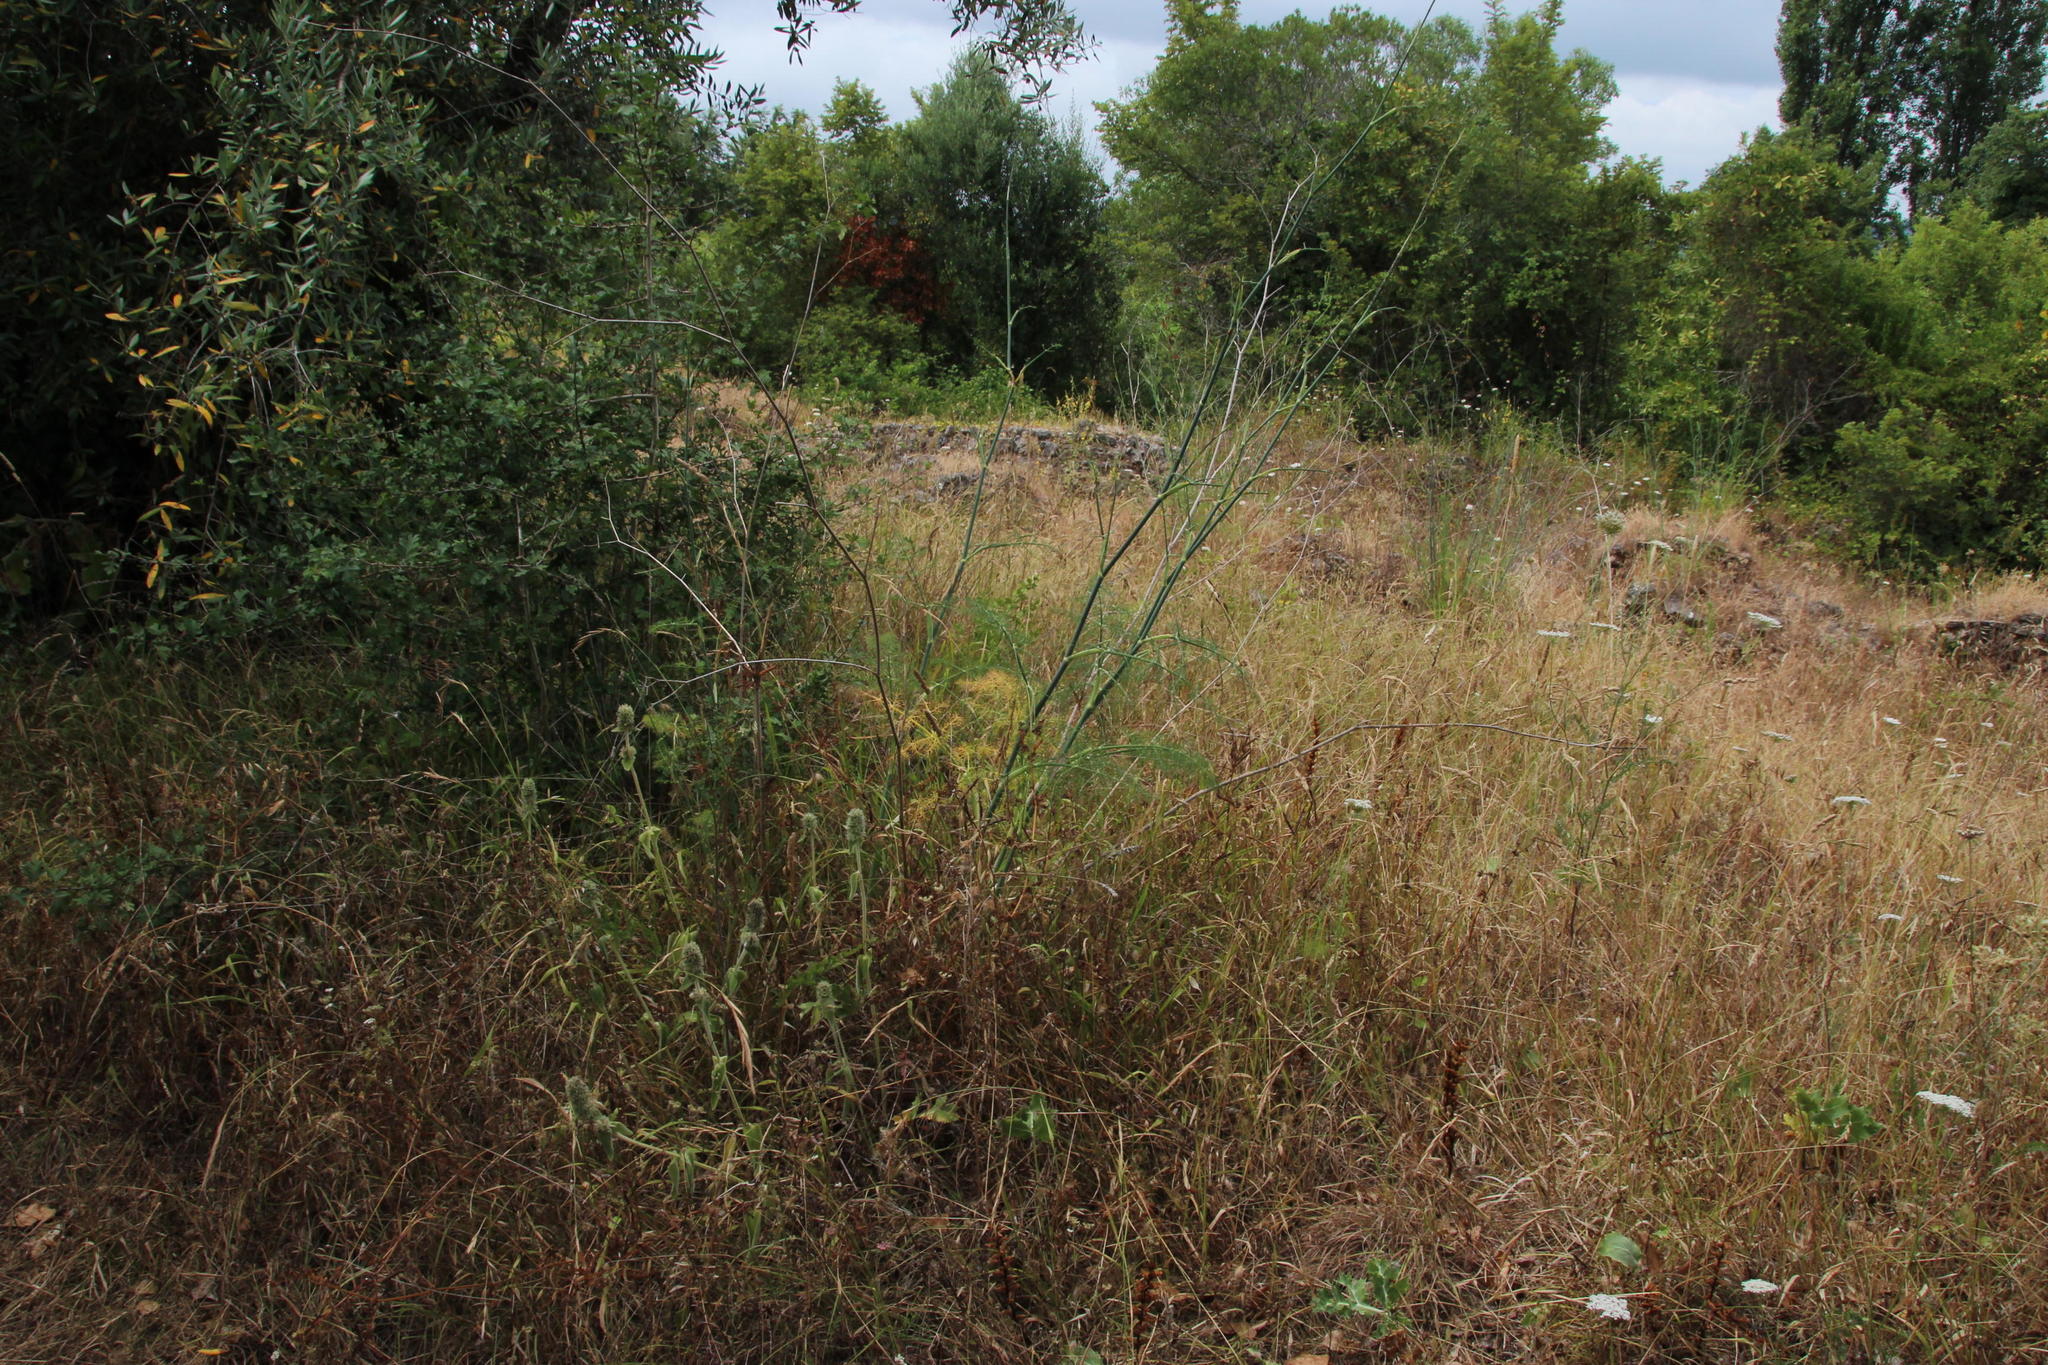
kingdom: Plantae
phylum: Tracheophyta
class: Magnoliopsida
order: Apiales
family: Apiaceae
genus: Foeniculum
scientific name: Foeniculum vulgare
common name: Fennel
